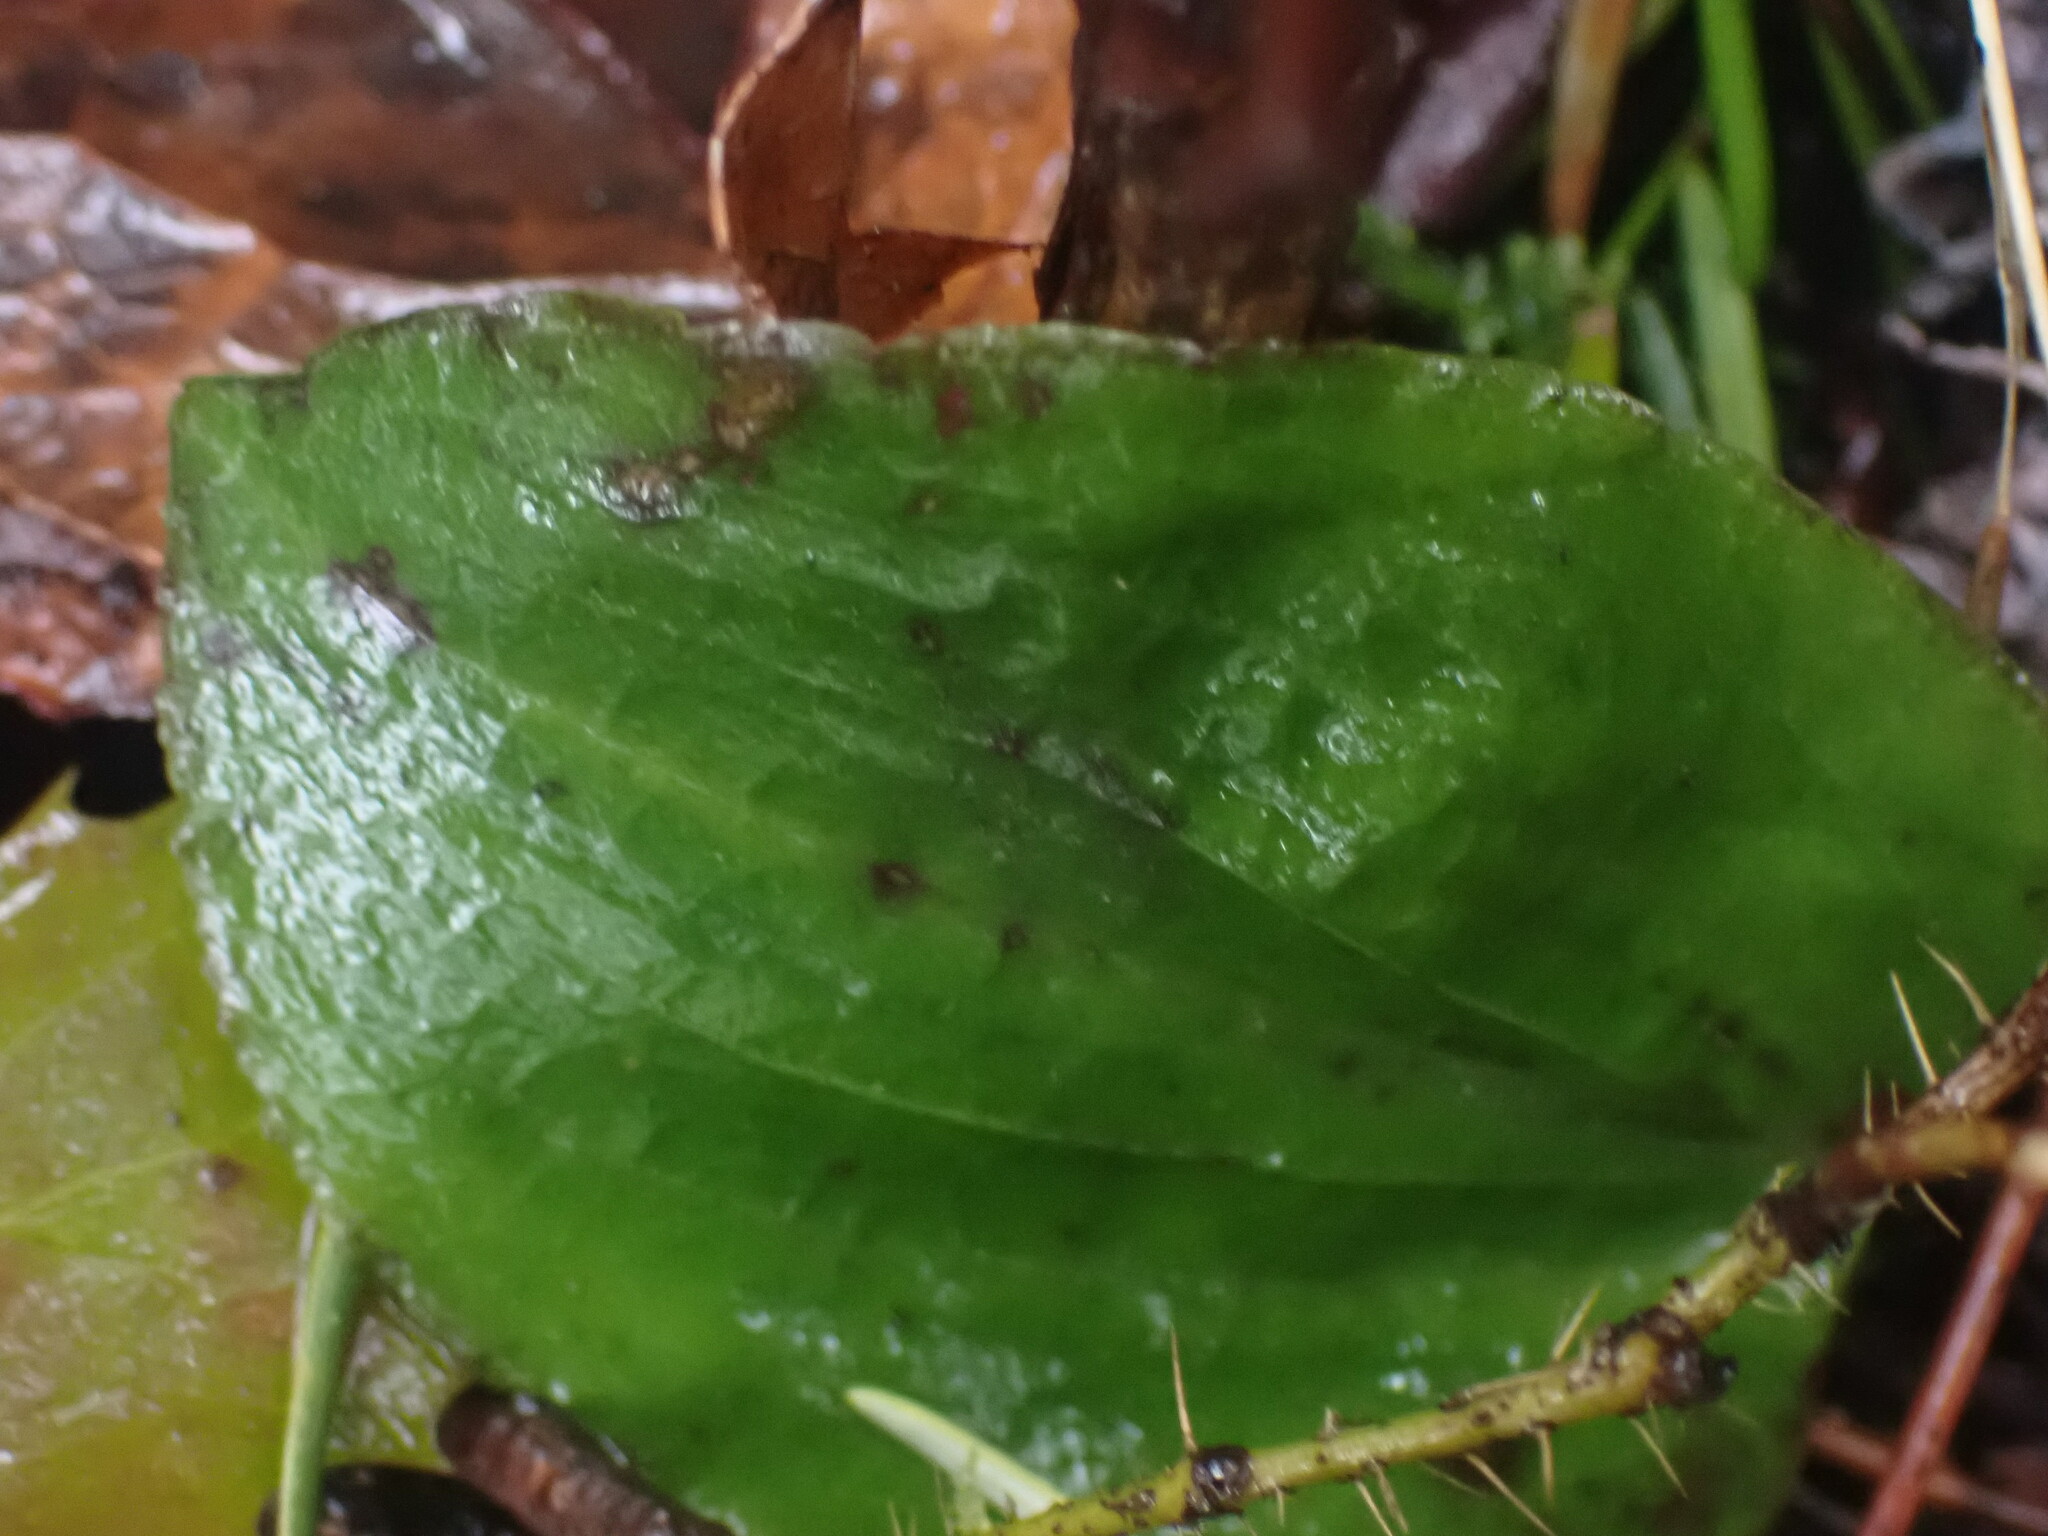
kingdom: Plantae
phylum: Tracheophyta
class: Liliopsida
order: Asparagales
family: Orchidaceae
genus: Calypso
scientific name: Calypso bulbosa
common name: Calypso
